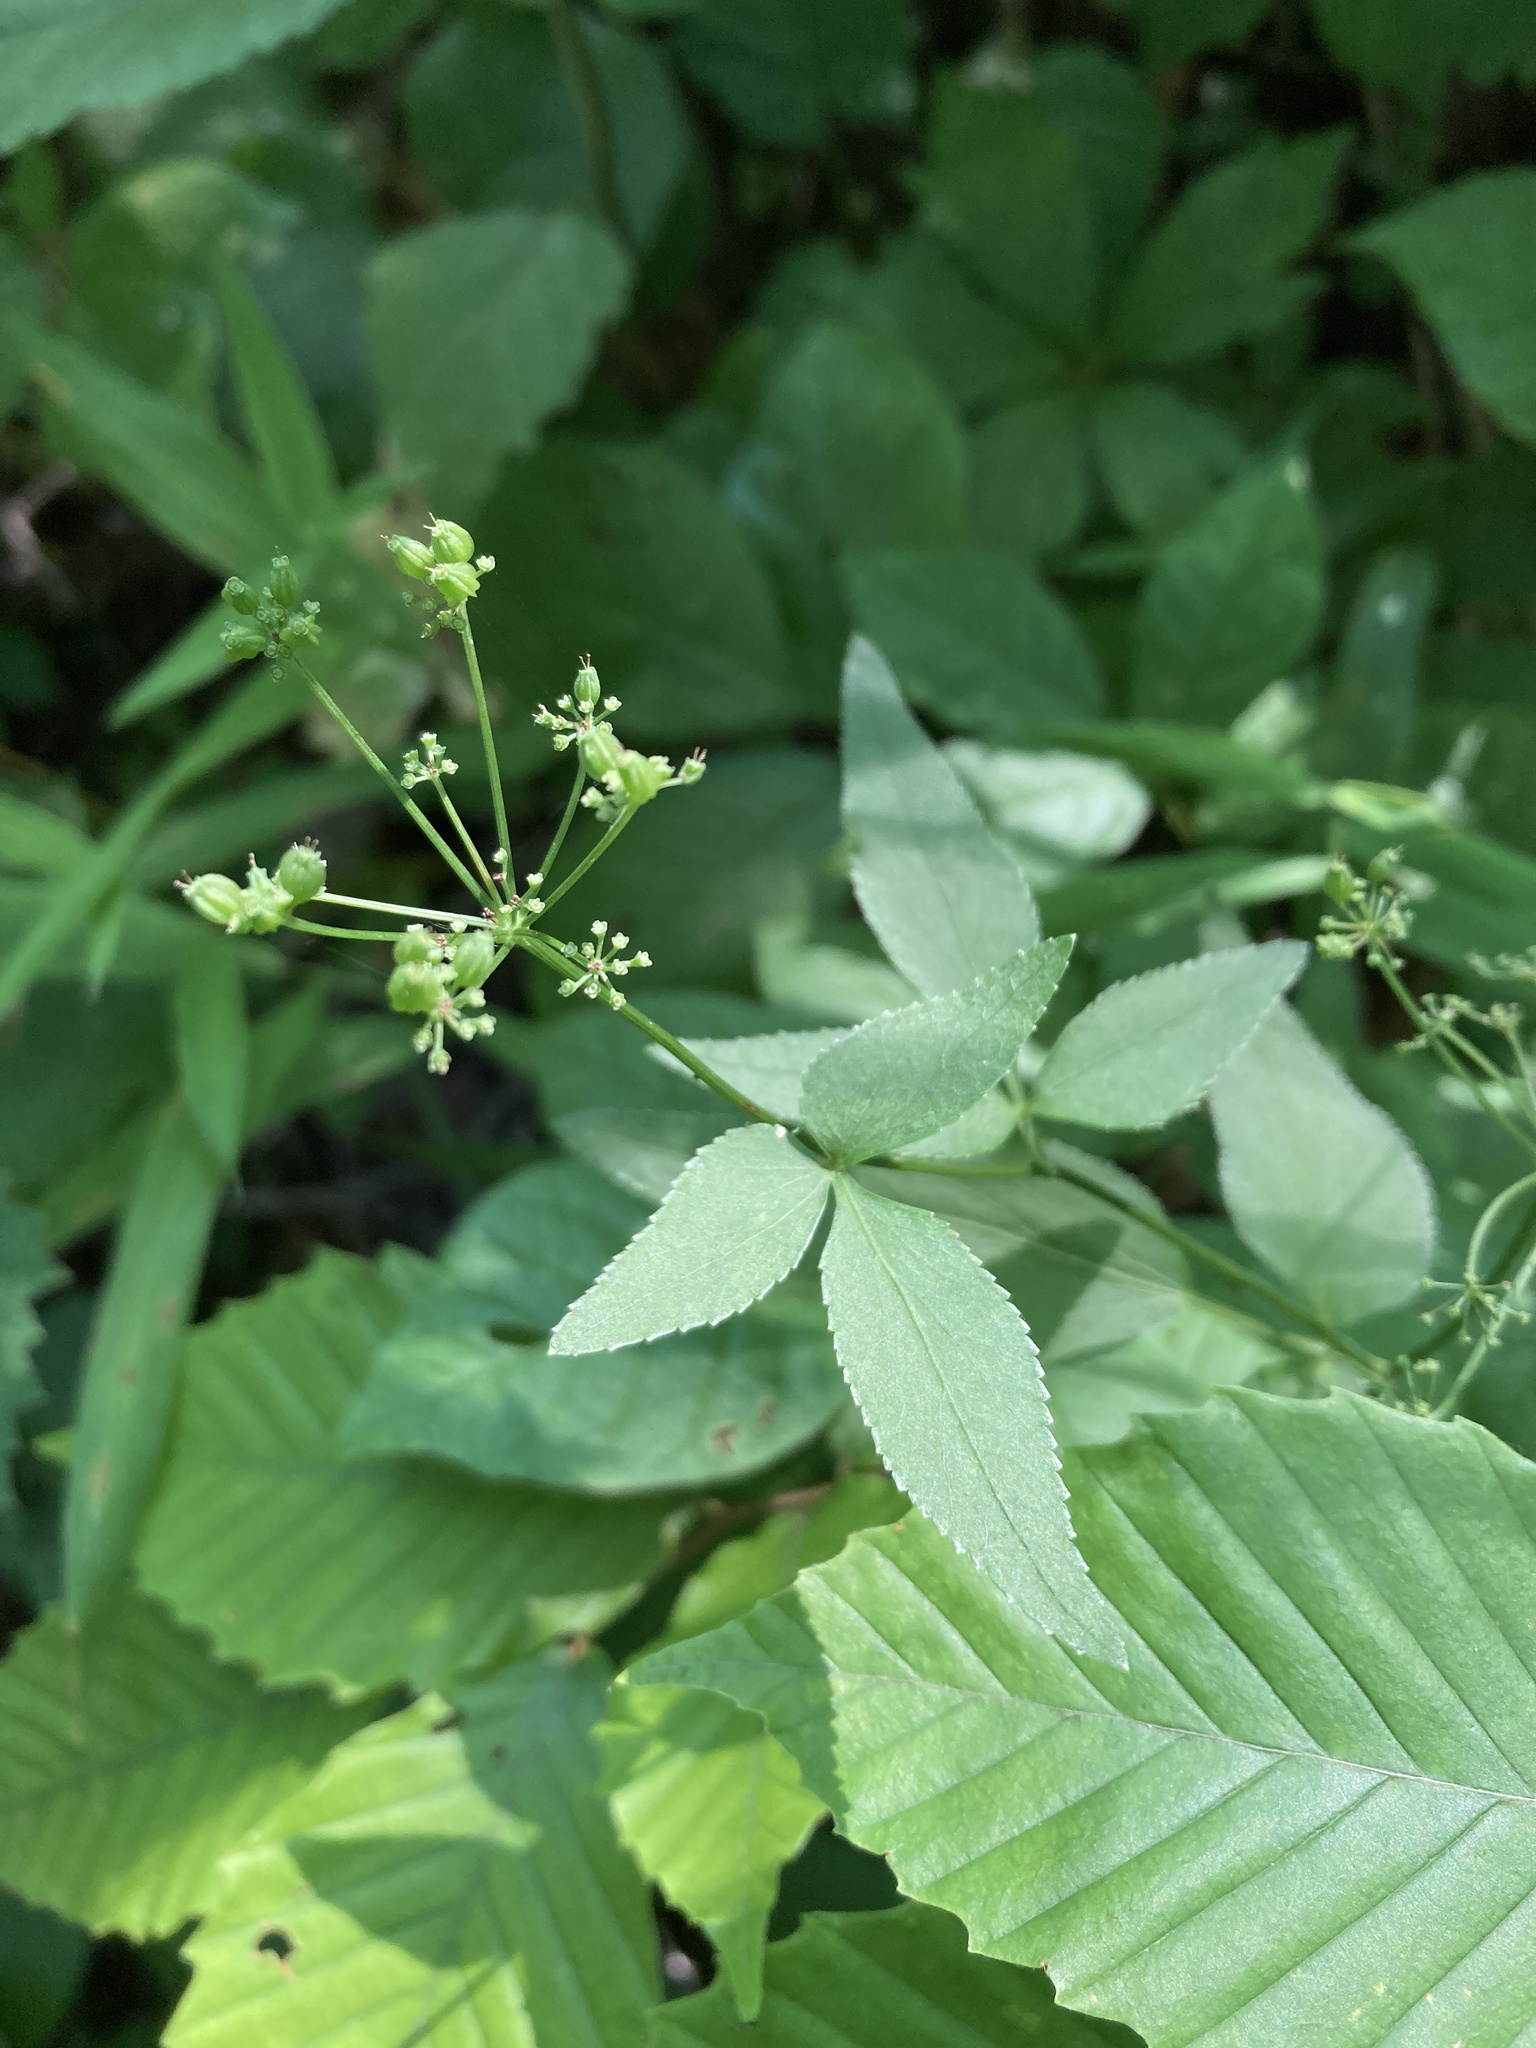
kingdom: Plantae
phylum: Tracheophyta
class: Magnoliopsida
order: Apiales
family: Apiaceae
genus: Cryptotaenia
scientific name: Cryptotaenia canadensis
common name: Honewort
